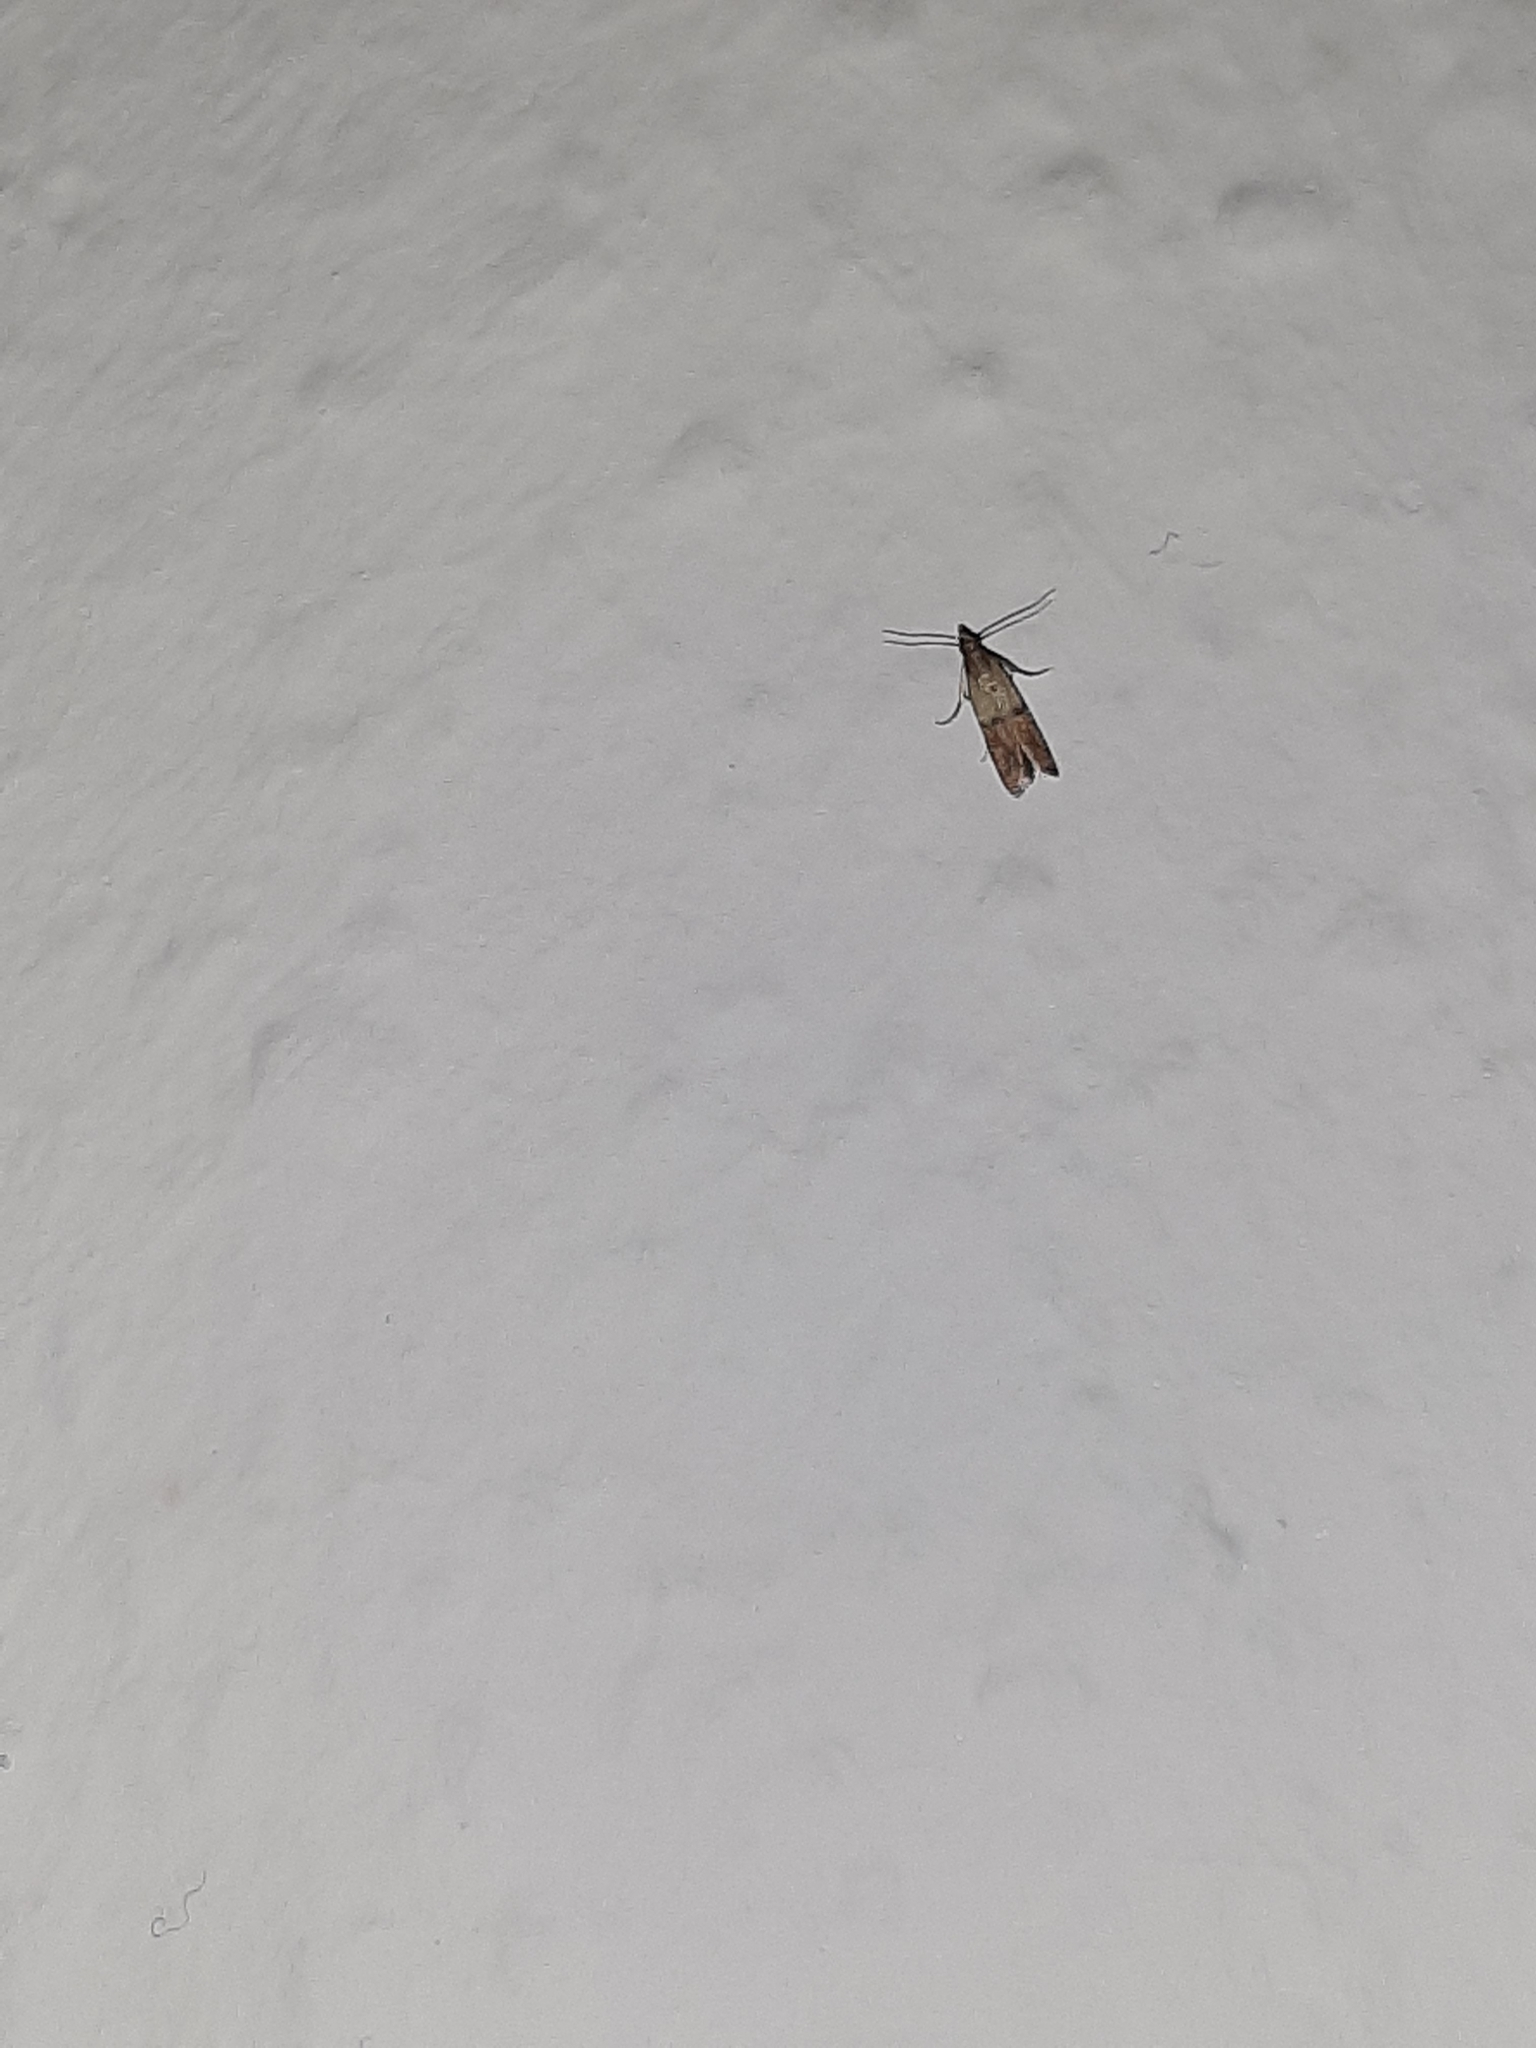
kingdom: Animalia
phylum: Arthropoda
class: Insecta
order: Lepidoptera
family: Pyralidae
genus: Plodia
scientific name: Plodia interpunctella
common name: Indian meal moth
